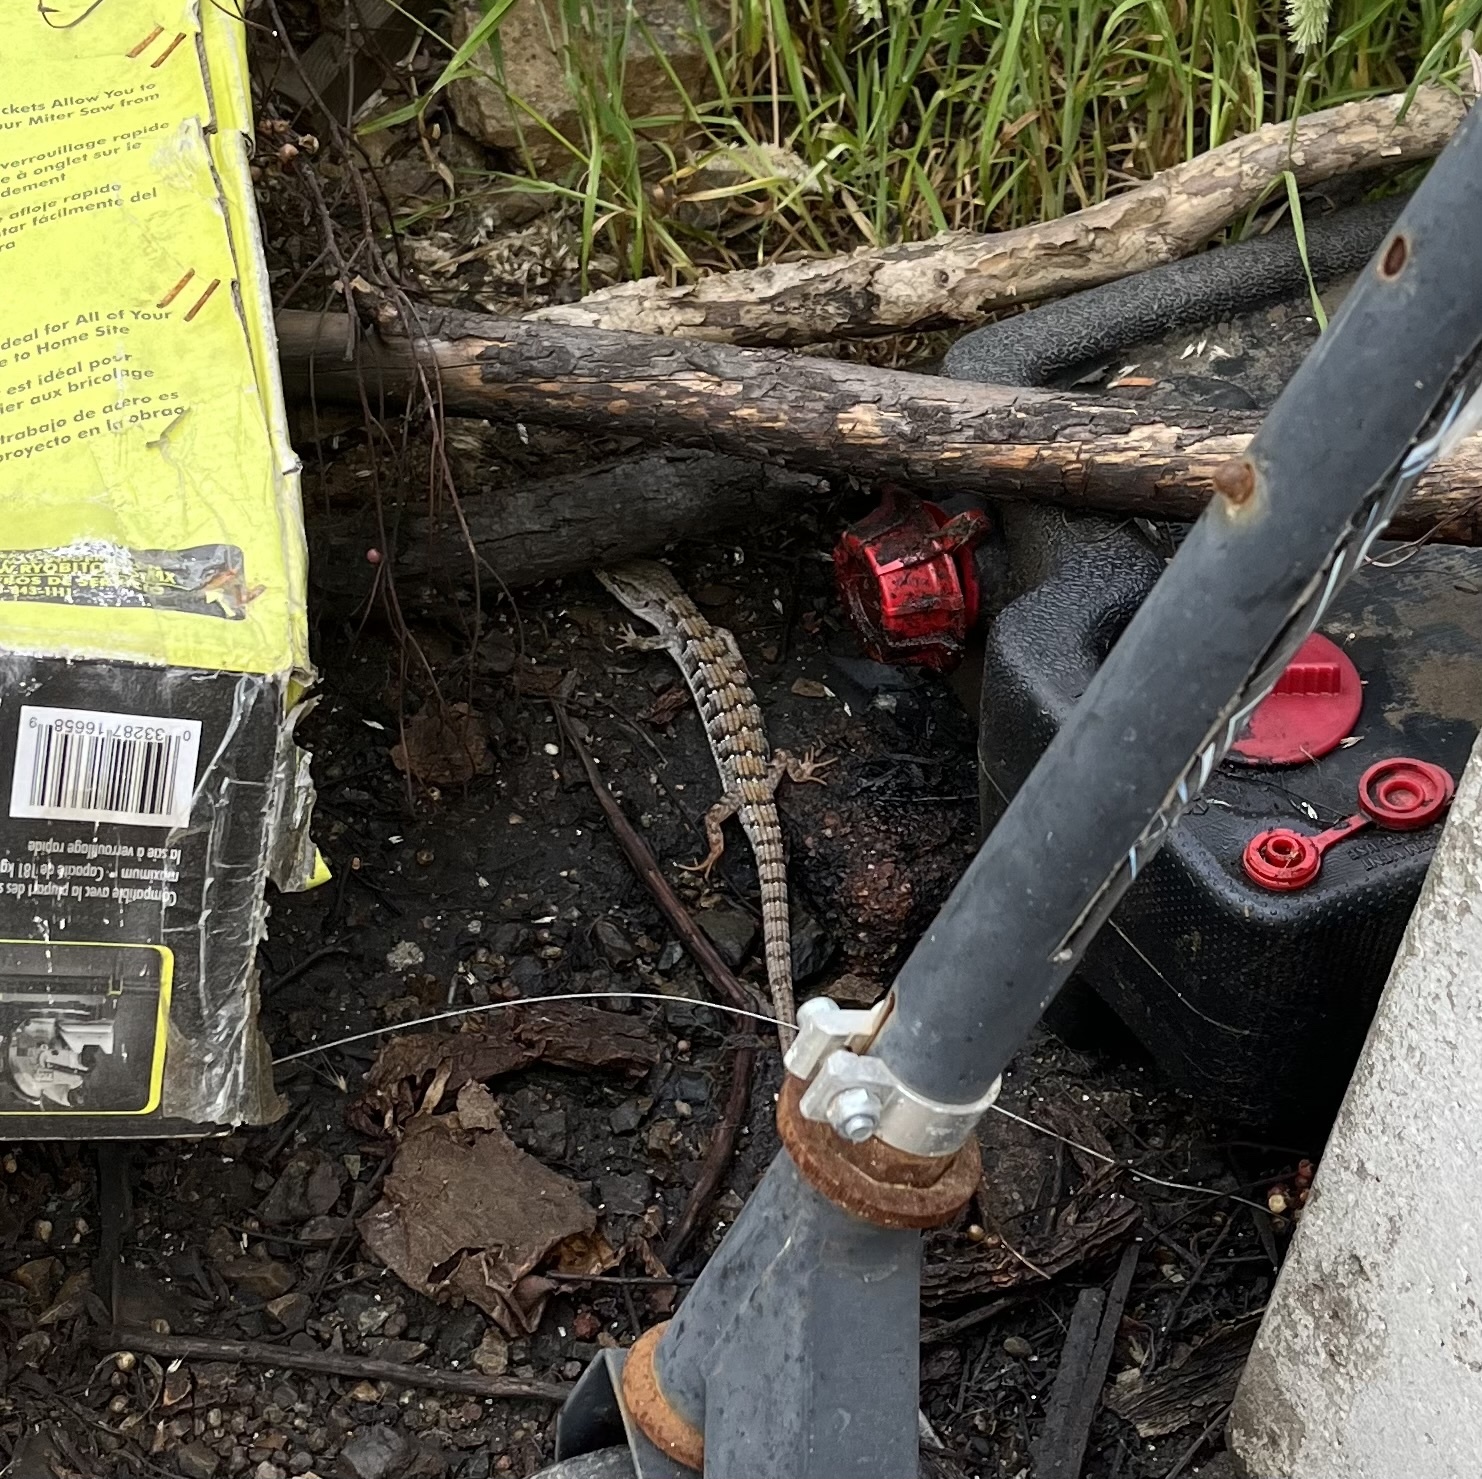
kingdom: Animalia
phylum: Chordata
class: Squamata
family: Anguidae
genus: Elgaria
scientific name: Elgaria multicarinata
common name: Southern alligator lizard
